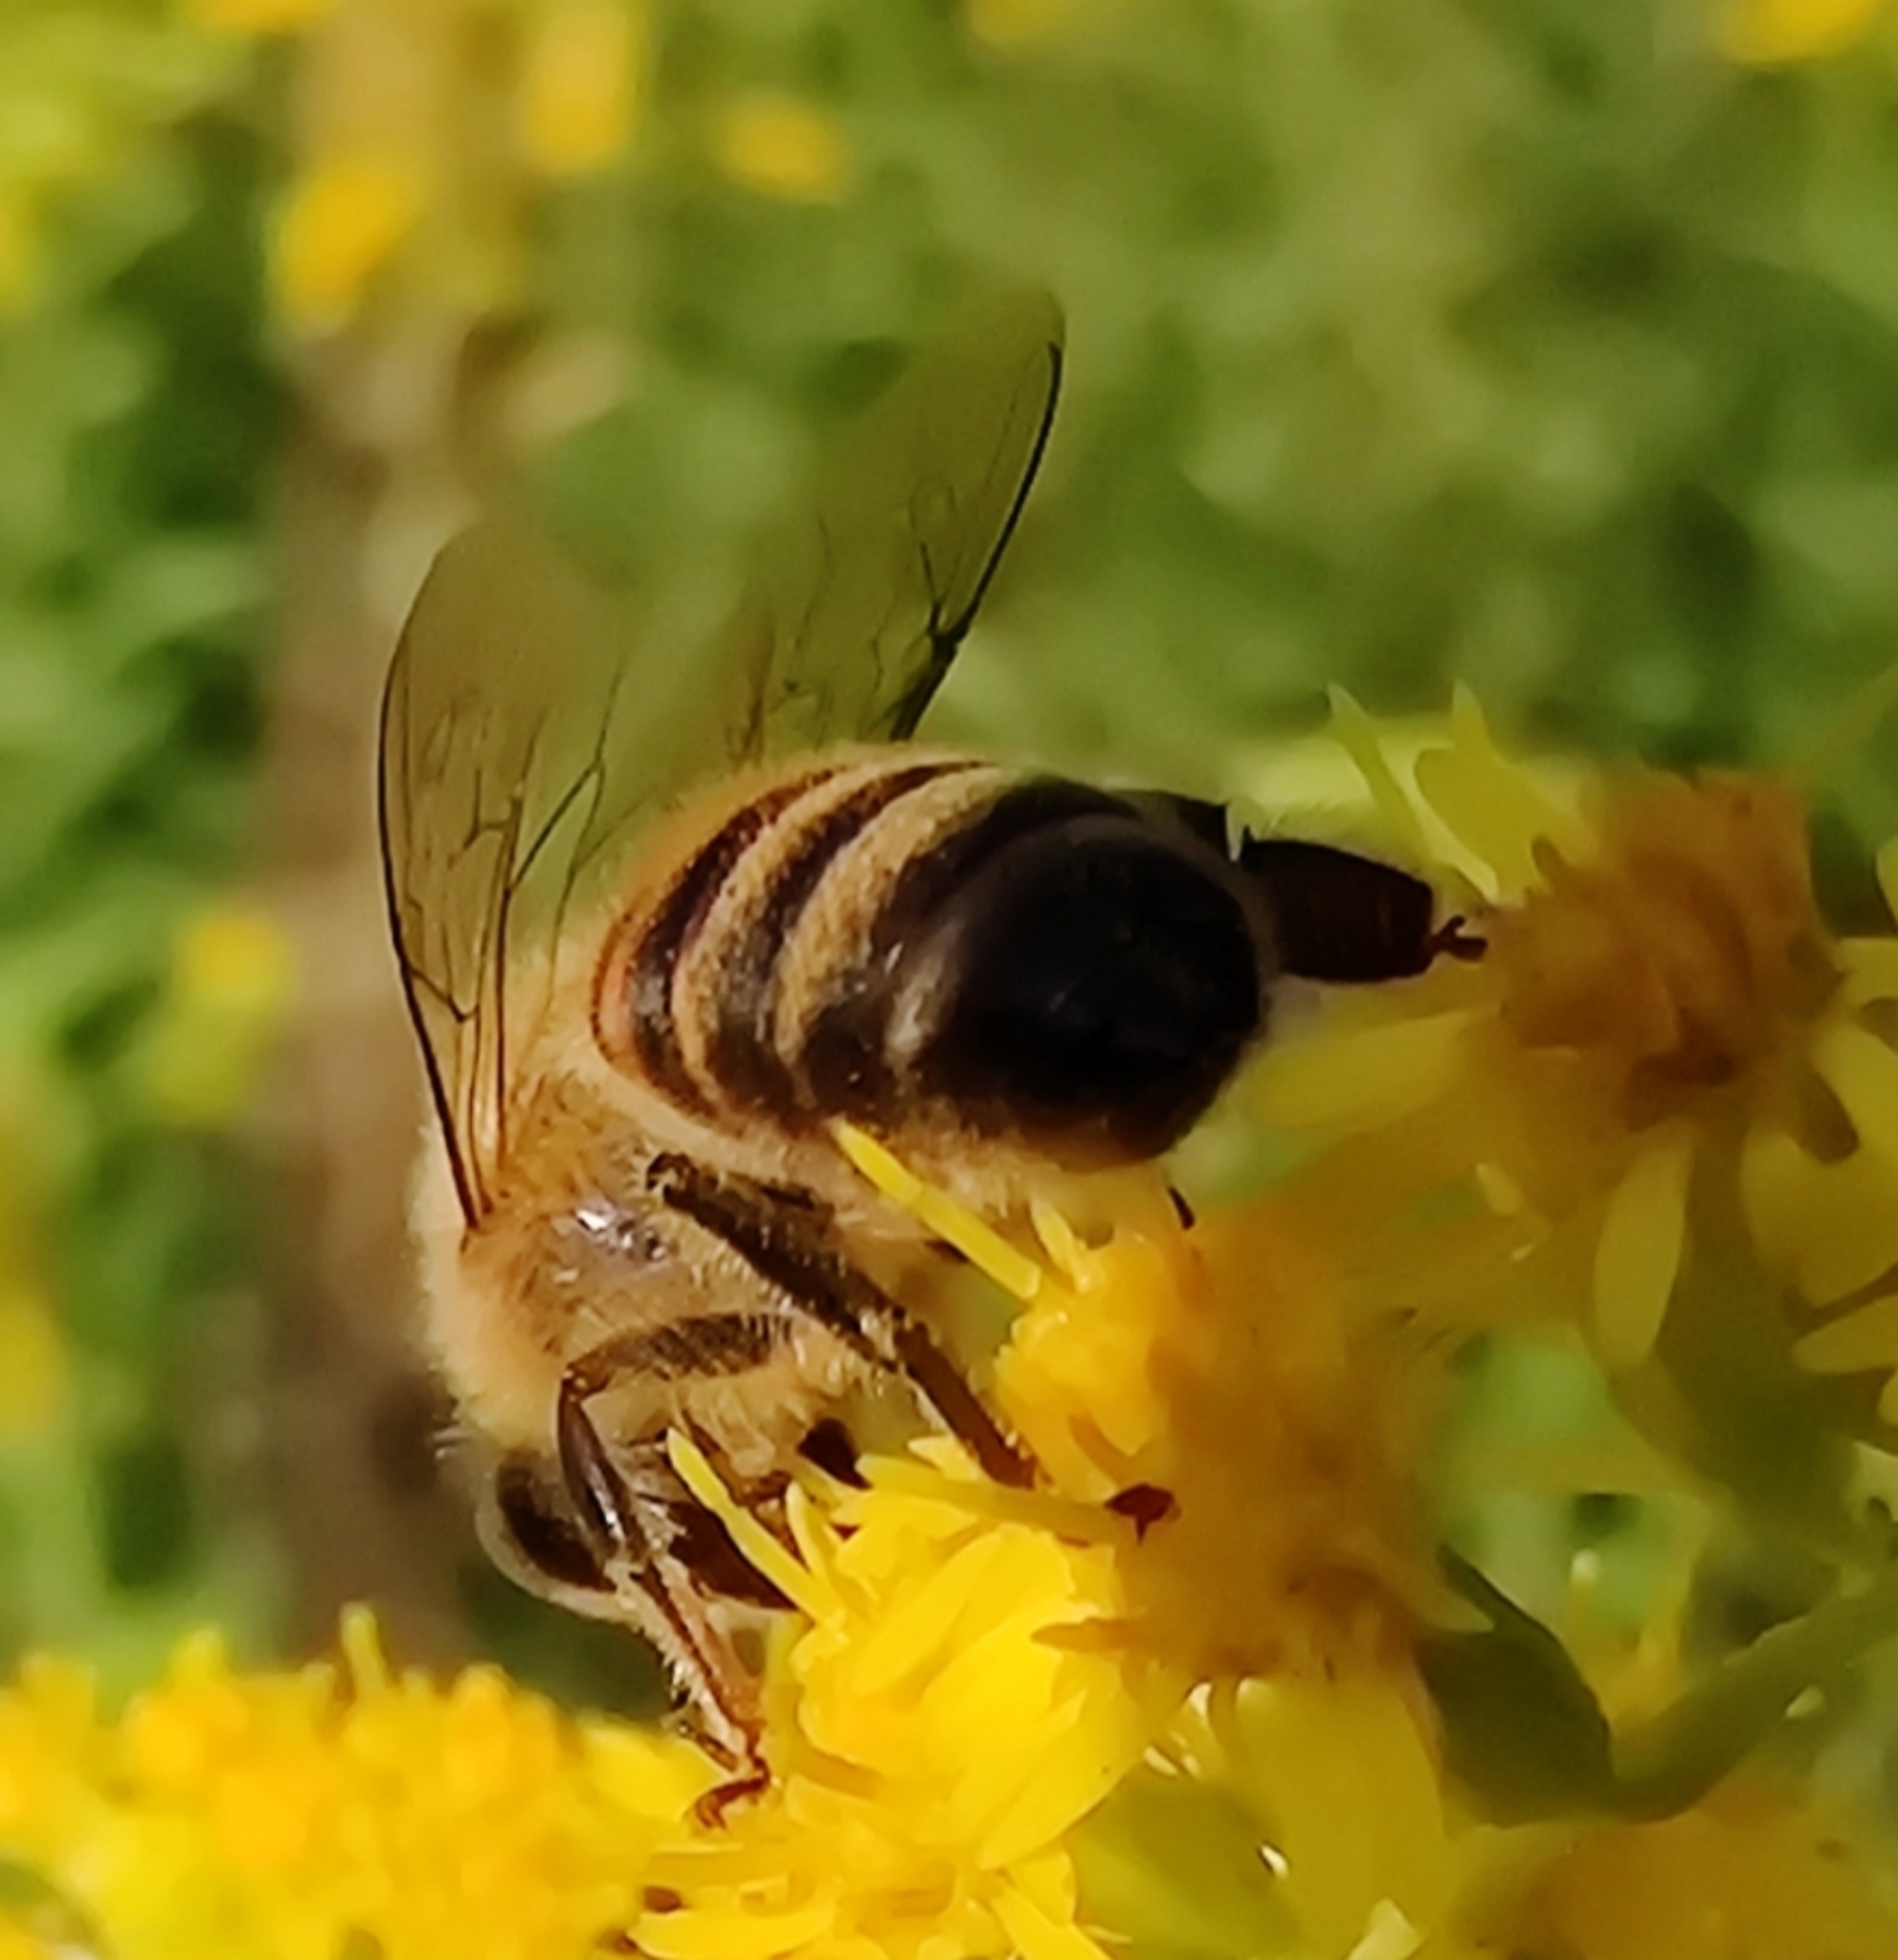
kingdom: Animalia
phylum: Arthropoda
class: Insecta
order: Hymenoptera
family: Apidae
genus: Apis
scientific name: Apis mellifera
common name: Honey bee
